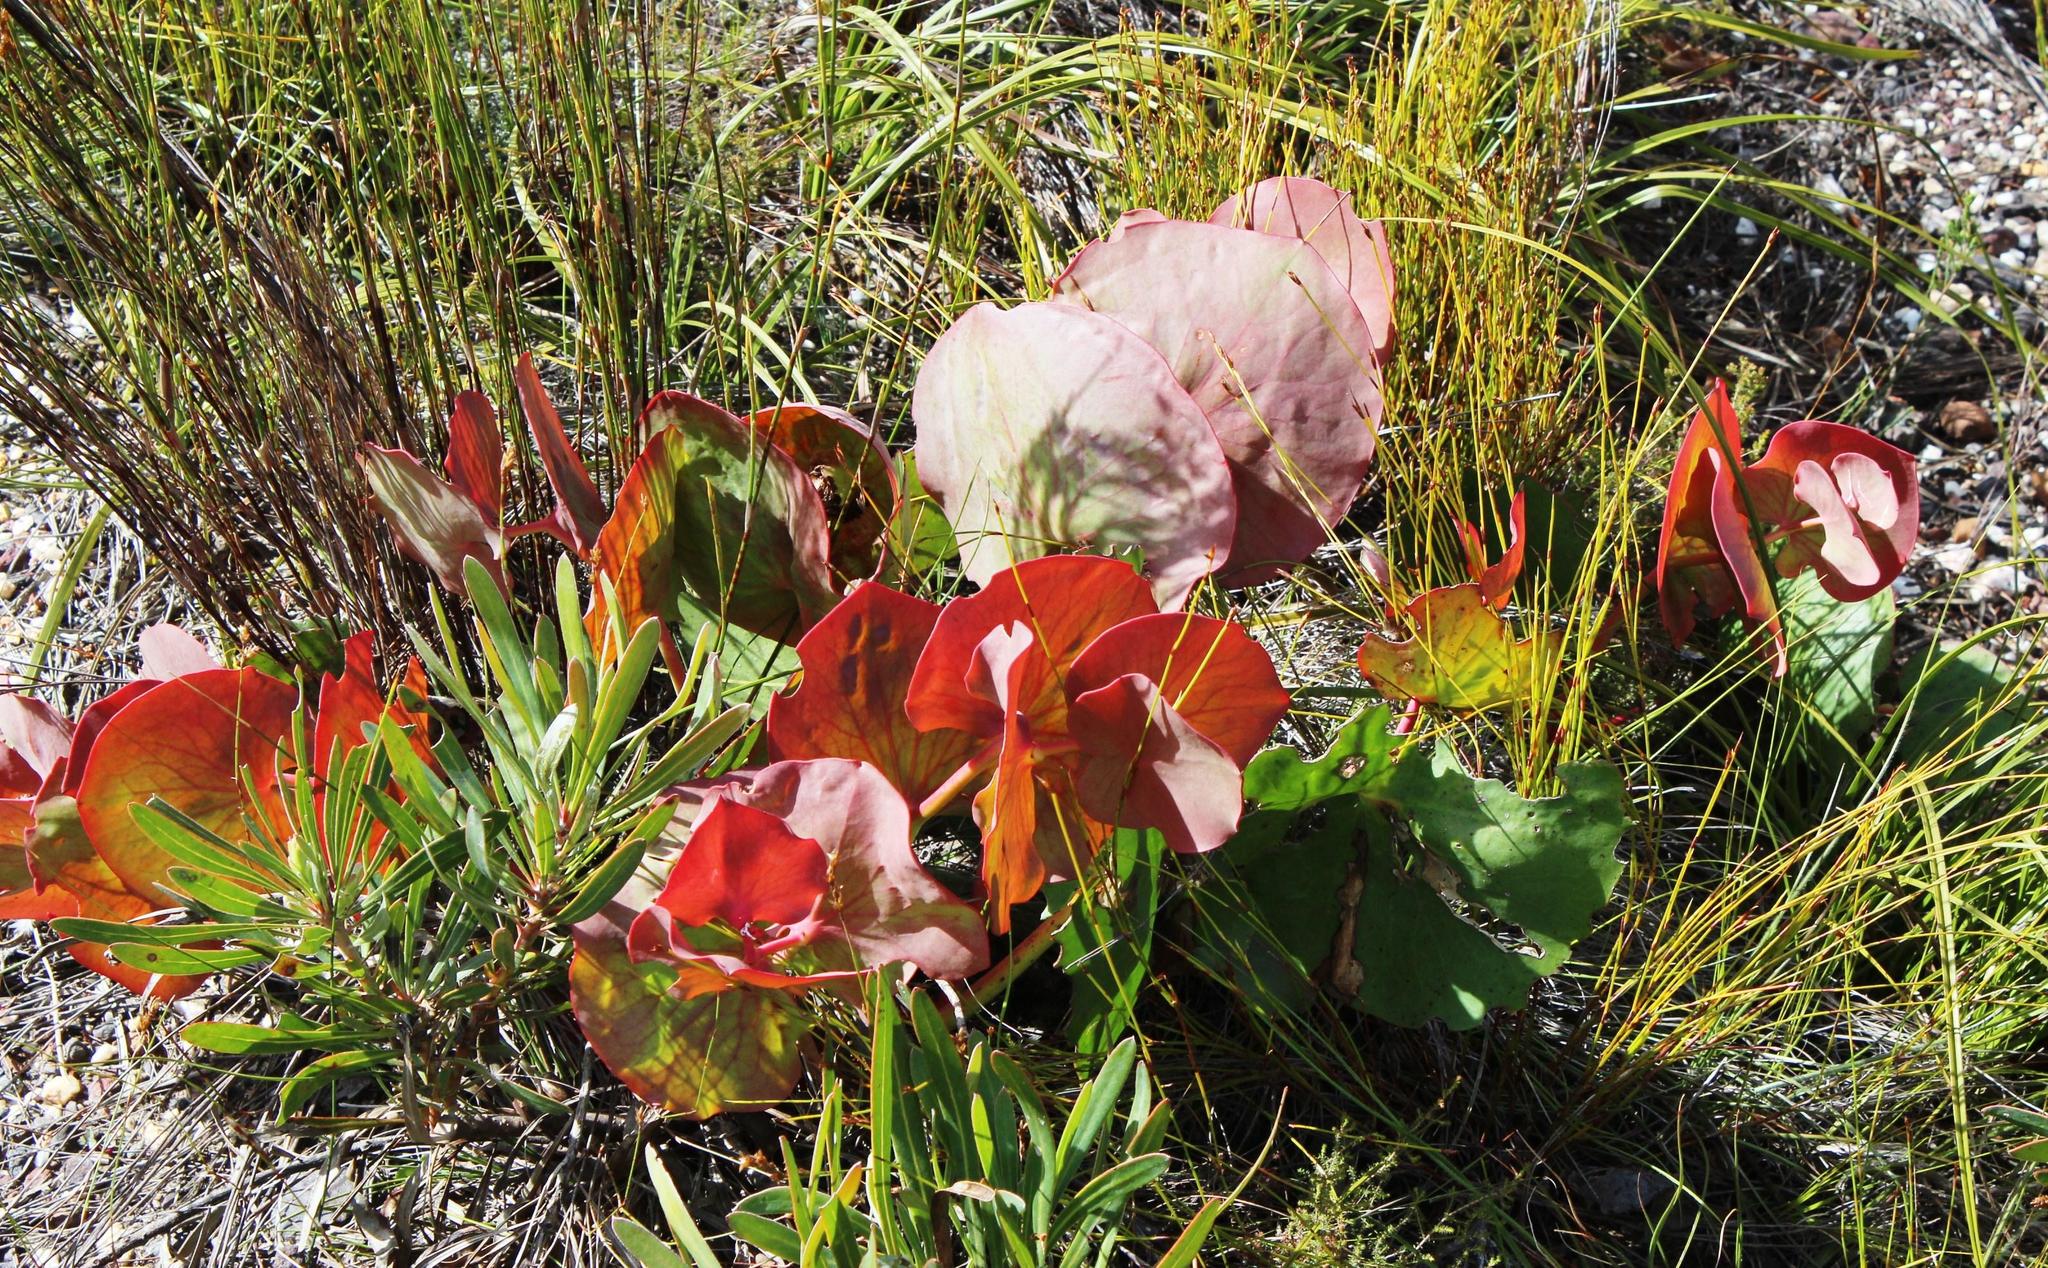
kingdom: Plantae
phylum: Tracheophyta
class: Magnoliopsida
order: Proteales
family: Proteaceae
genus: Protea
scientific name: Protea cordata
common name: Heart-leaf sugarbush
